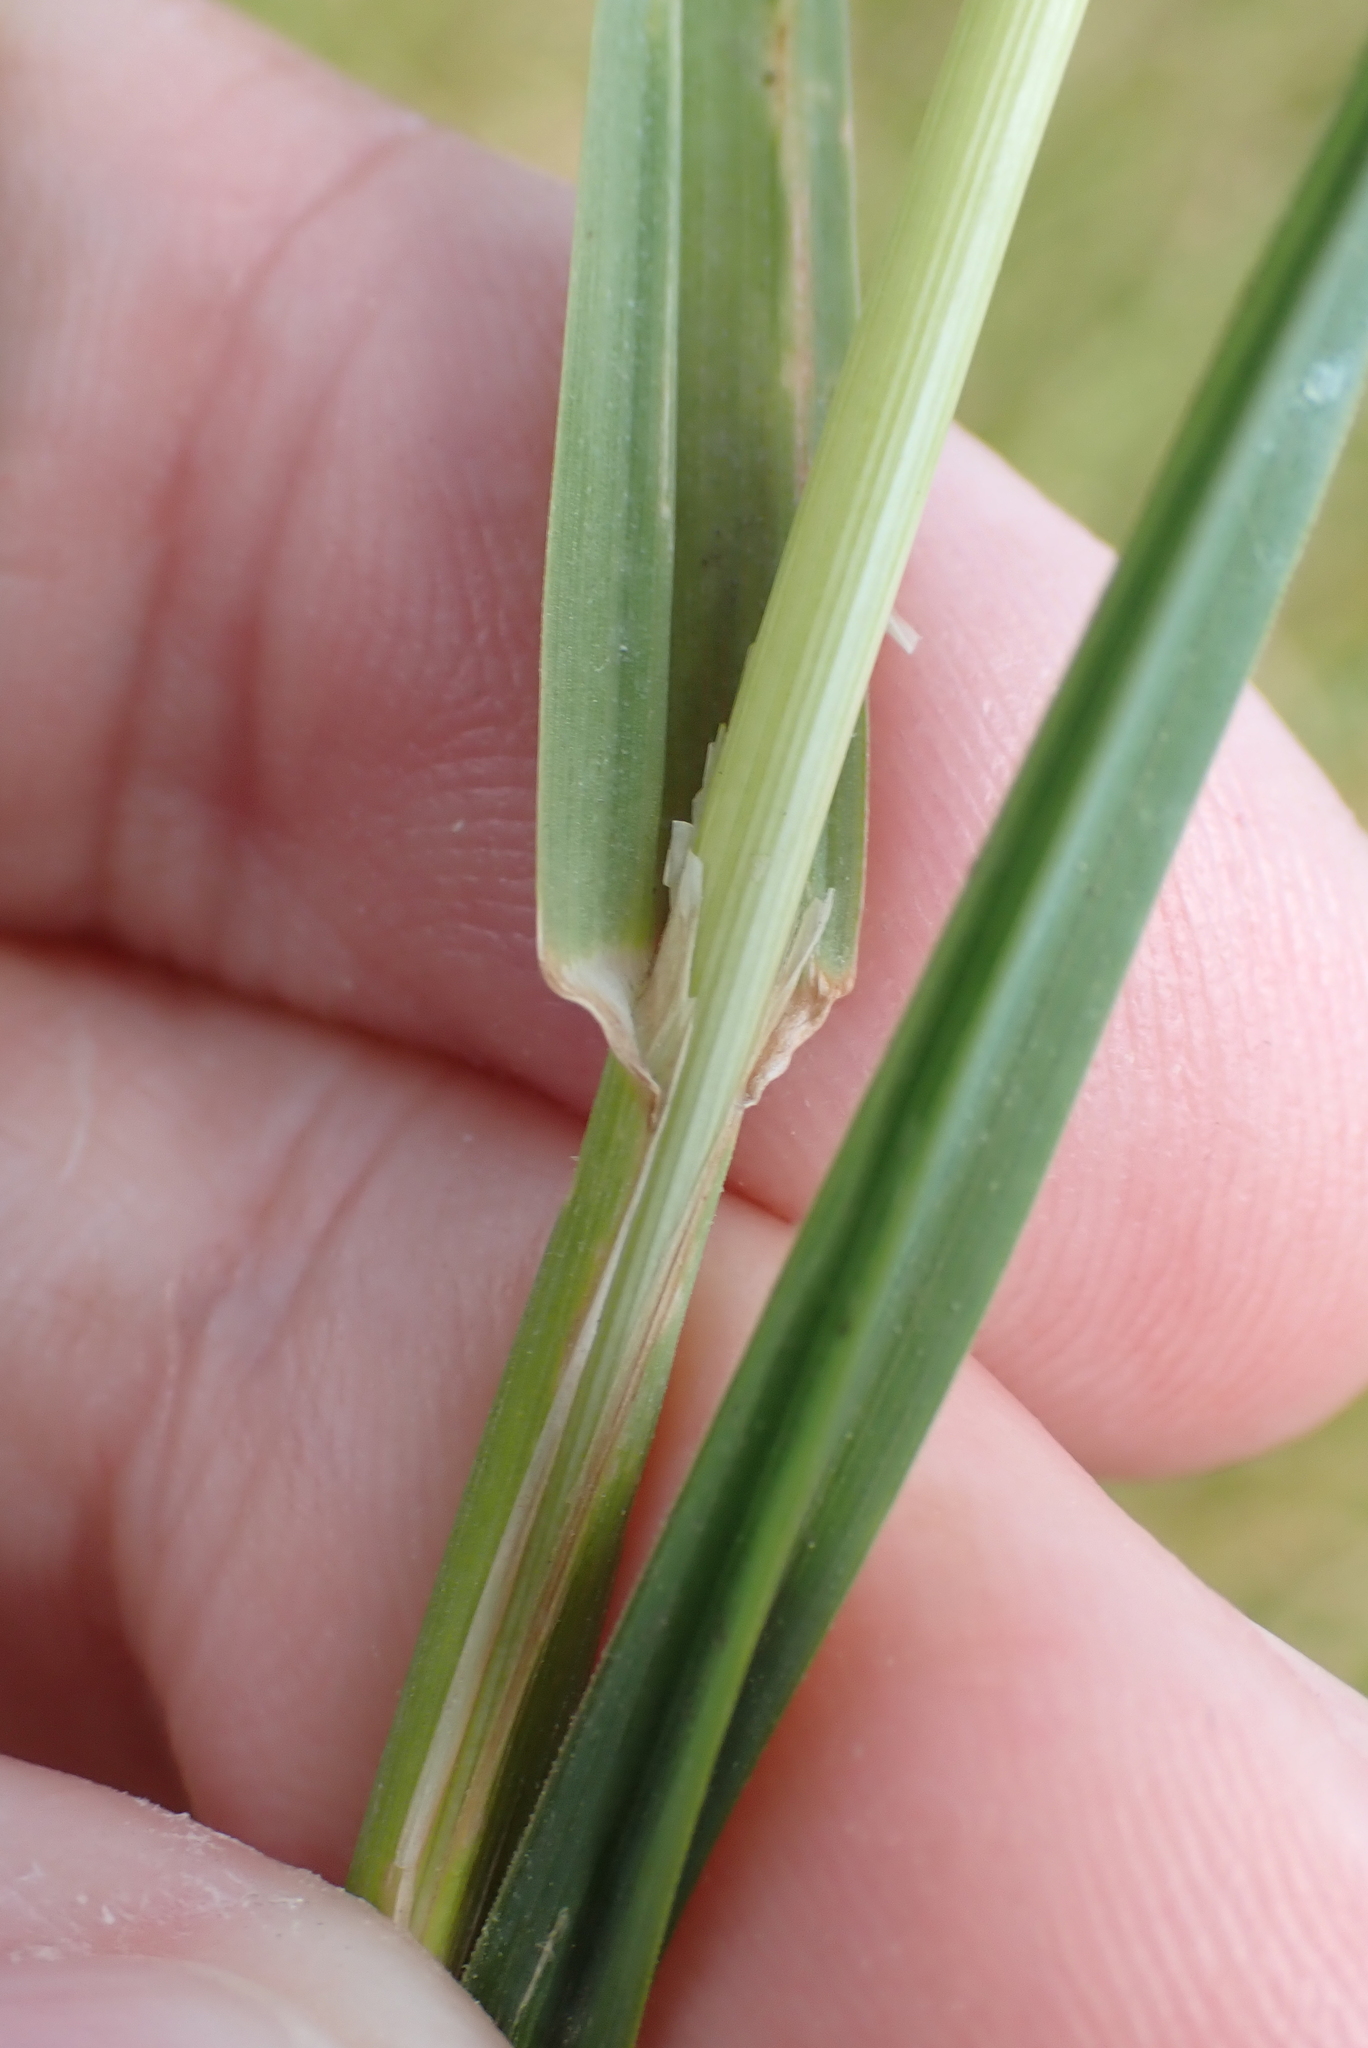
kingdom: Plantae
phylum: Tracheophyta
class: Liliopsida
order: Poales
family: Poaceae
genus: Dactylis
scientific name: Dactylis glomerata
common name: Orchardgrass
